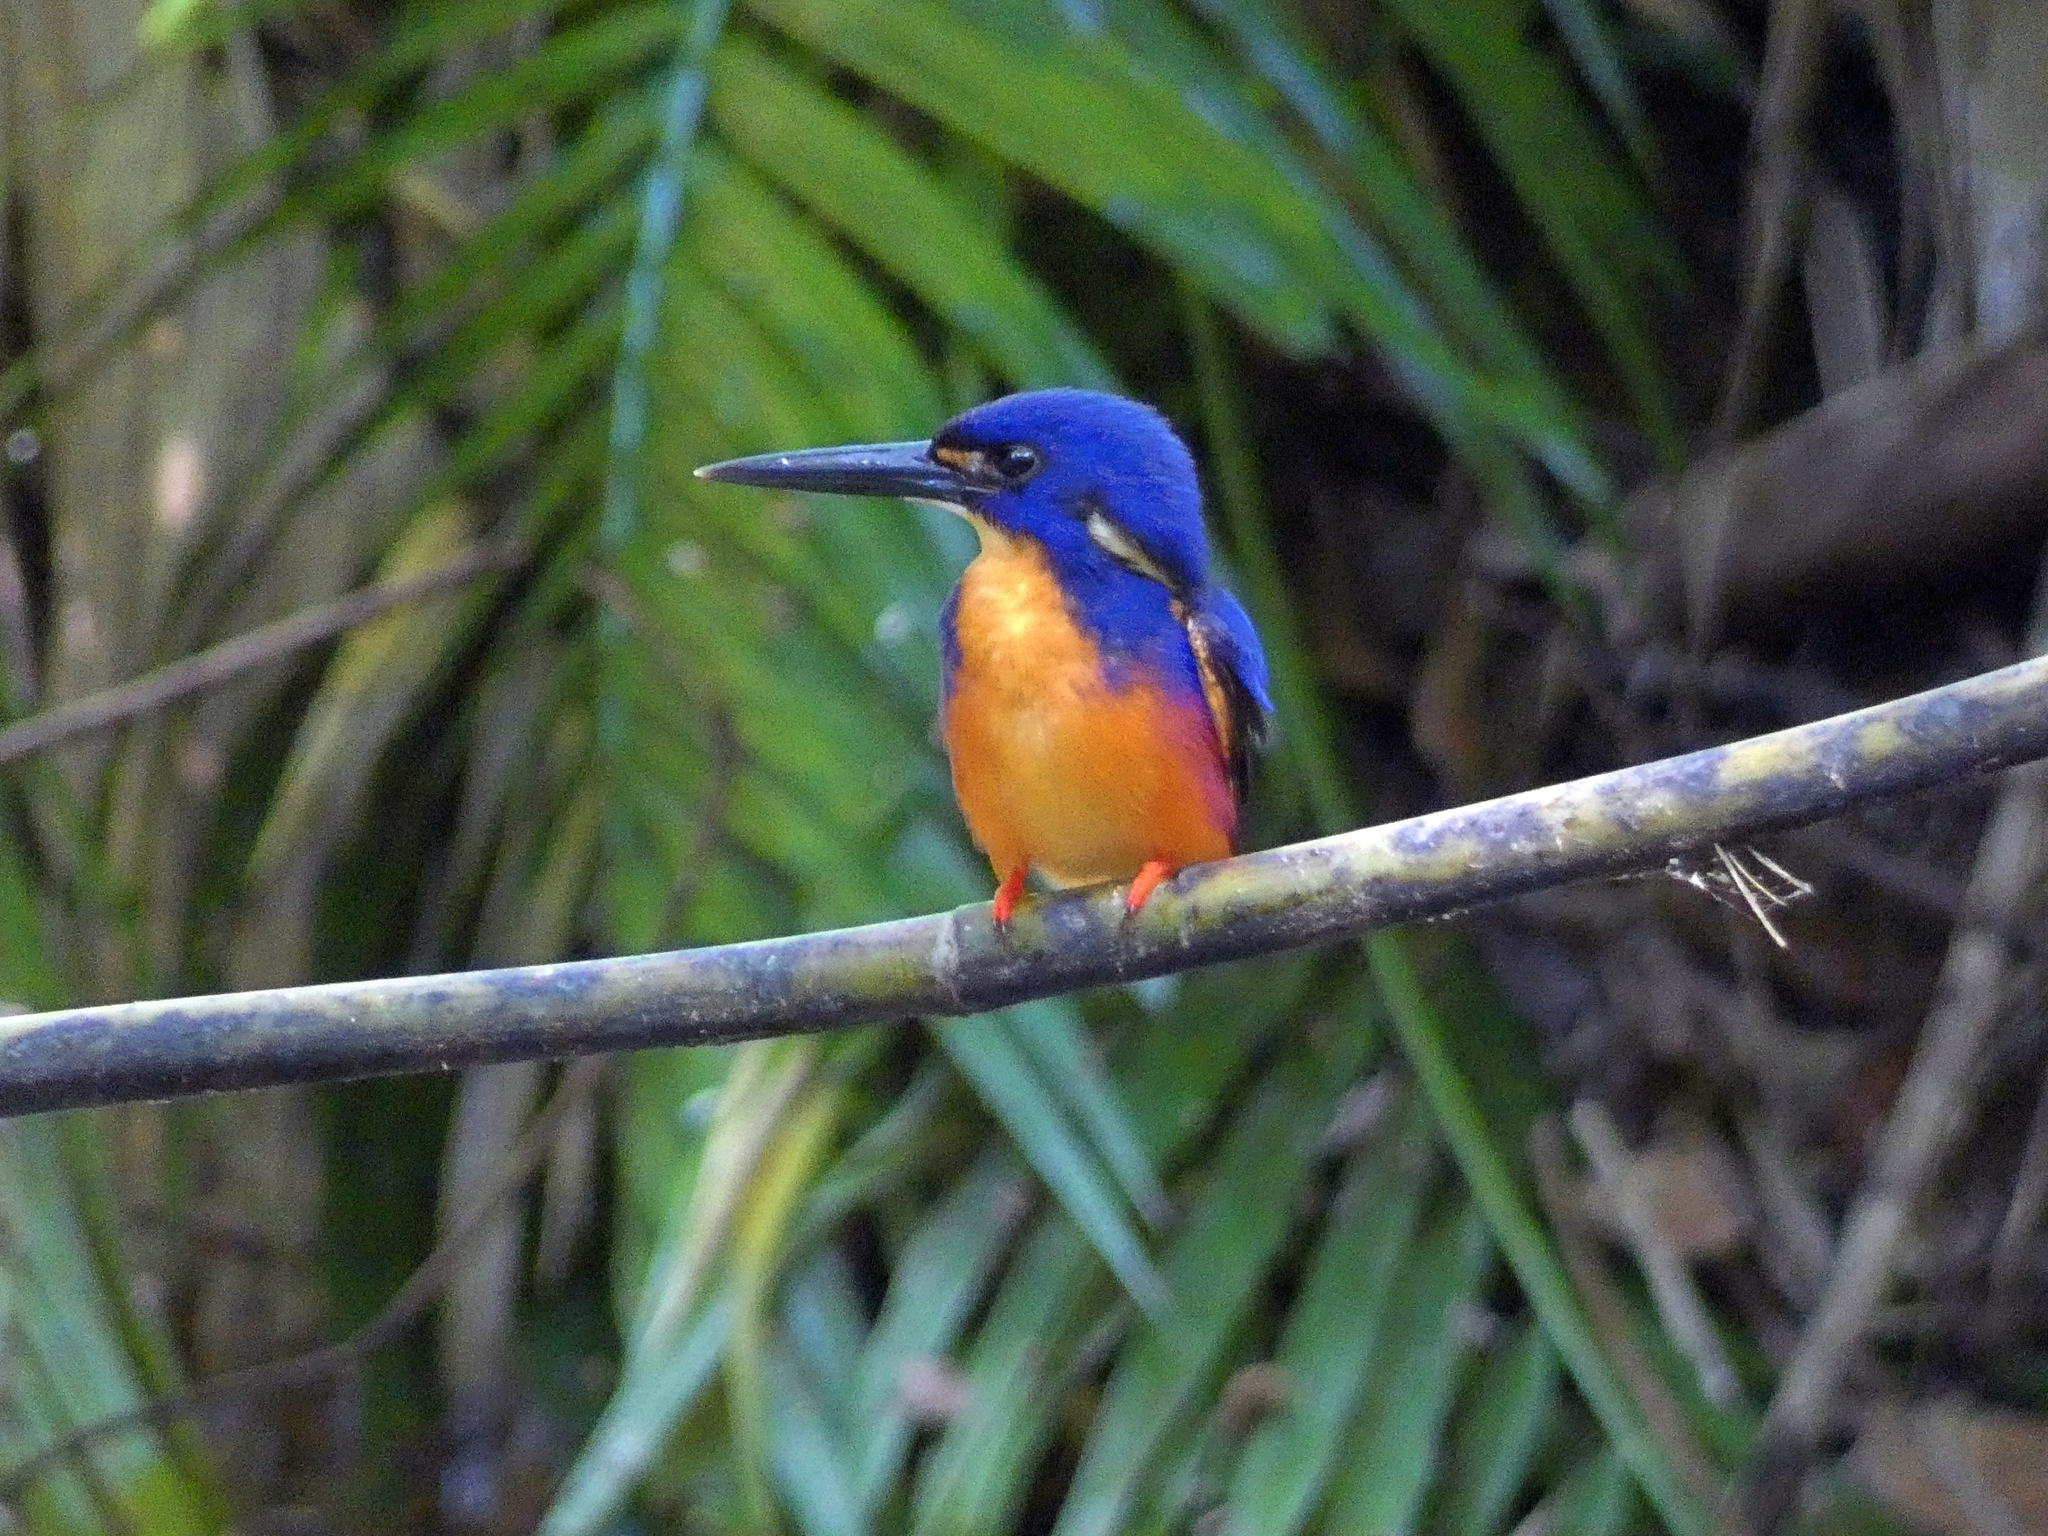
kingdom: Animalia
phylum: Chordata
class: Aves
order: Coraciiformes
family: Alcedinidae
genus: Ceyx
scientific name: Ceyx azureus
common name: Azure kingfisher
